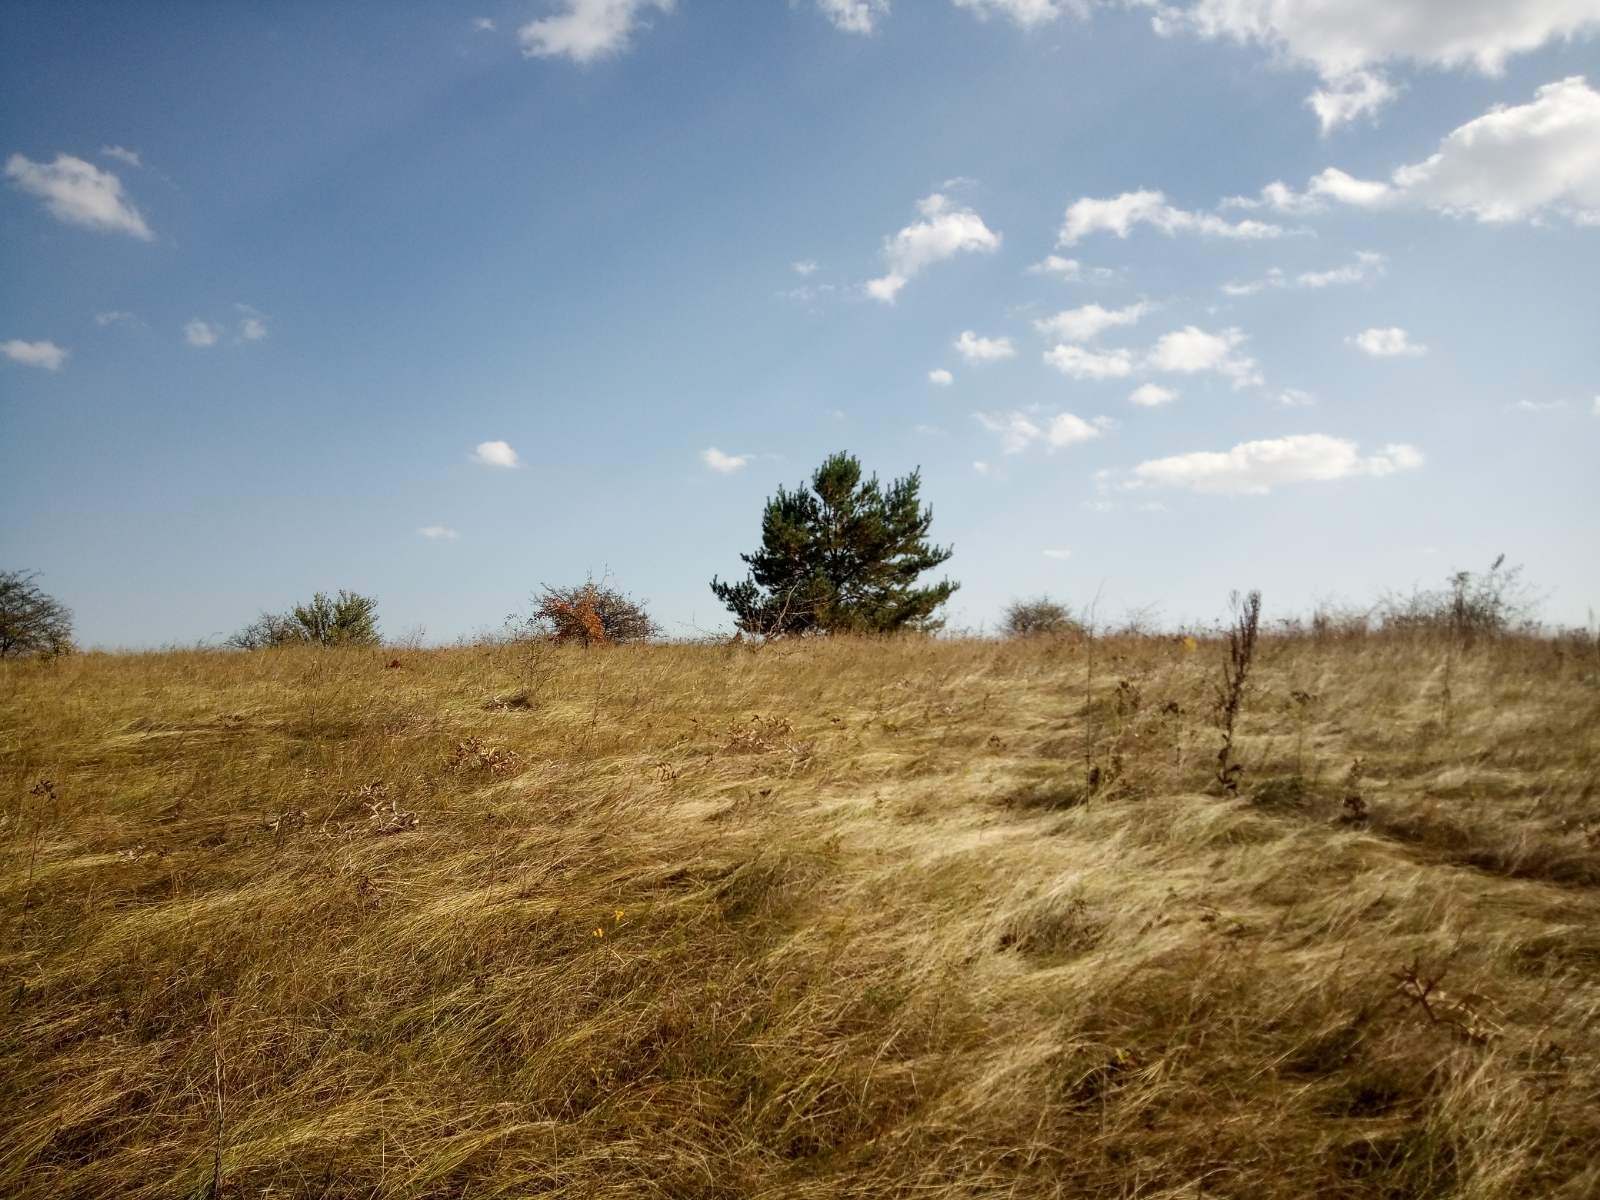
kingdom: Plantae
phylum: Tracheophyta
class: Pinopsida
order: Pinales
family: Pinaceae
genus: Pinus
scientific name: Pinus sylvestris
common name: Scots pine
